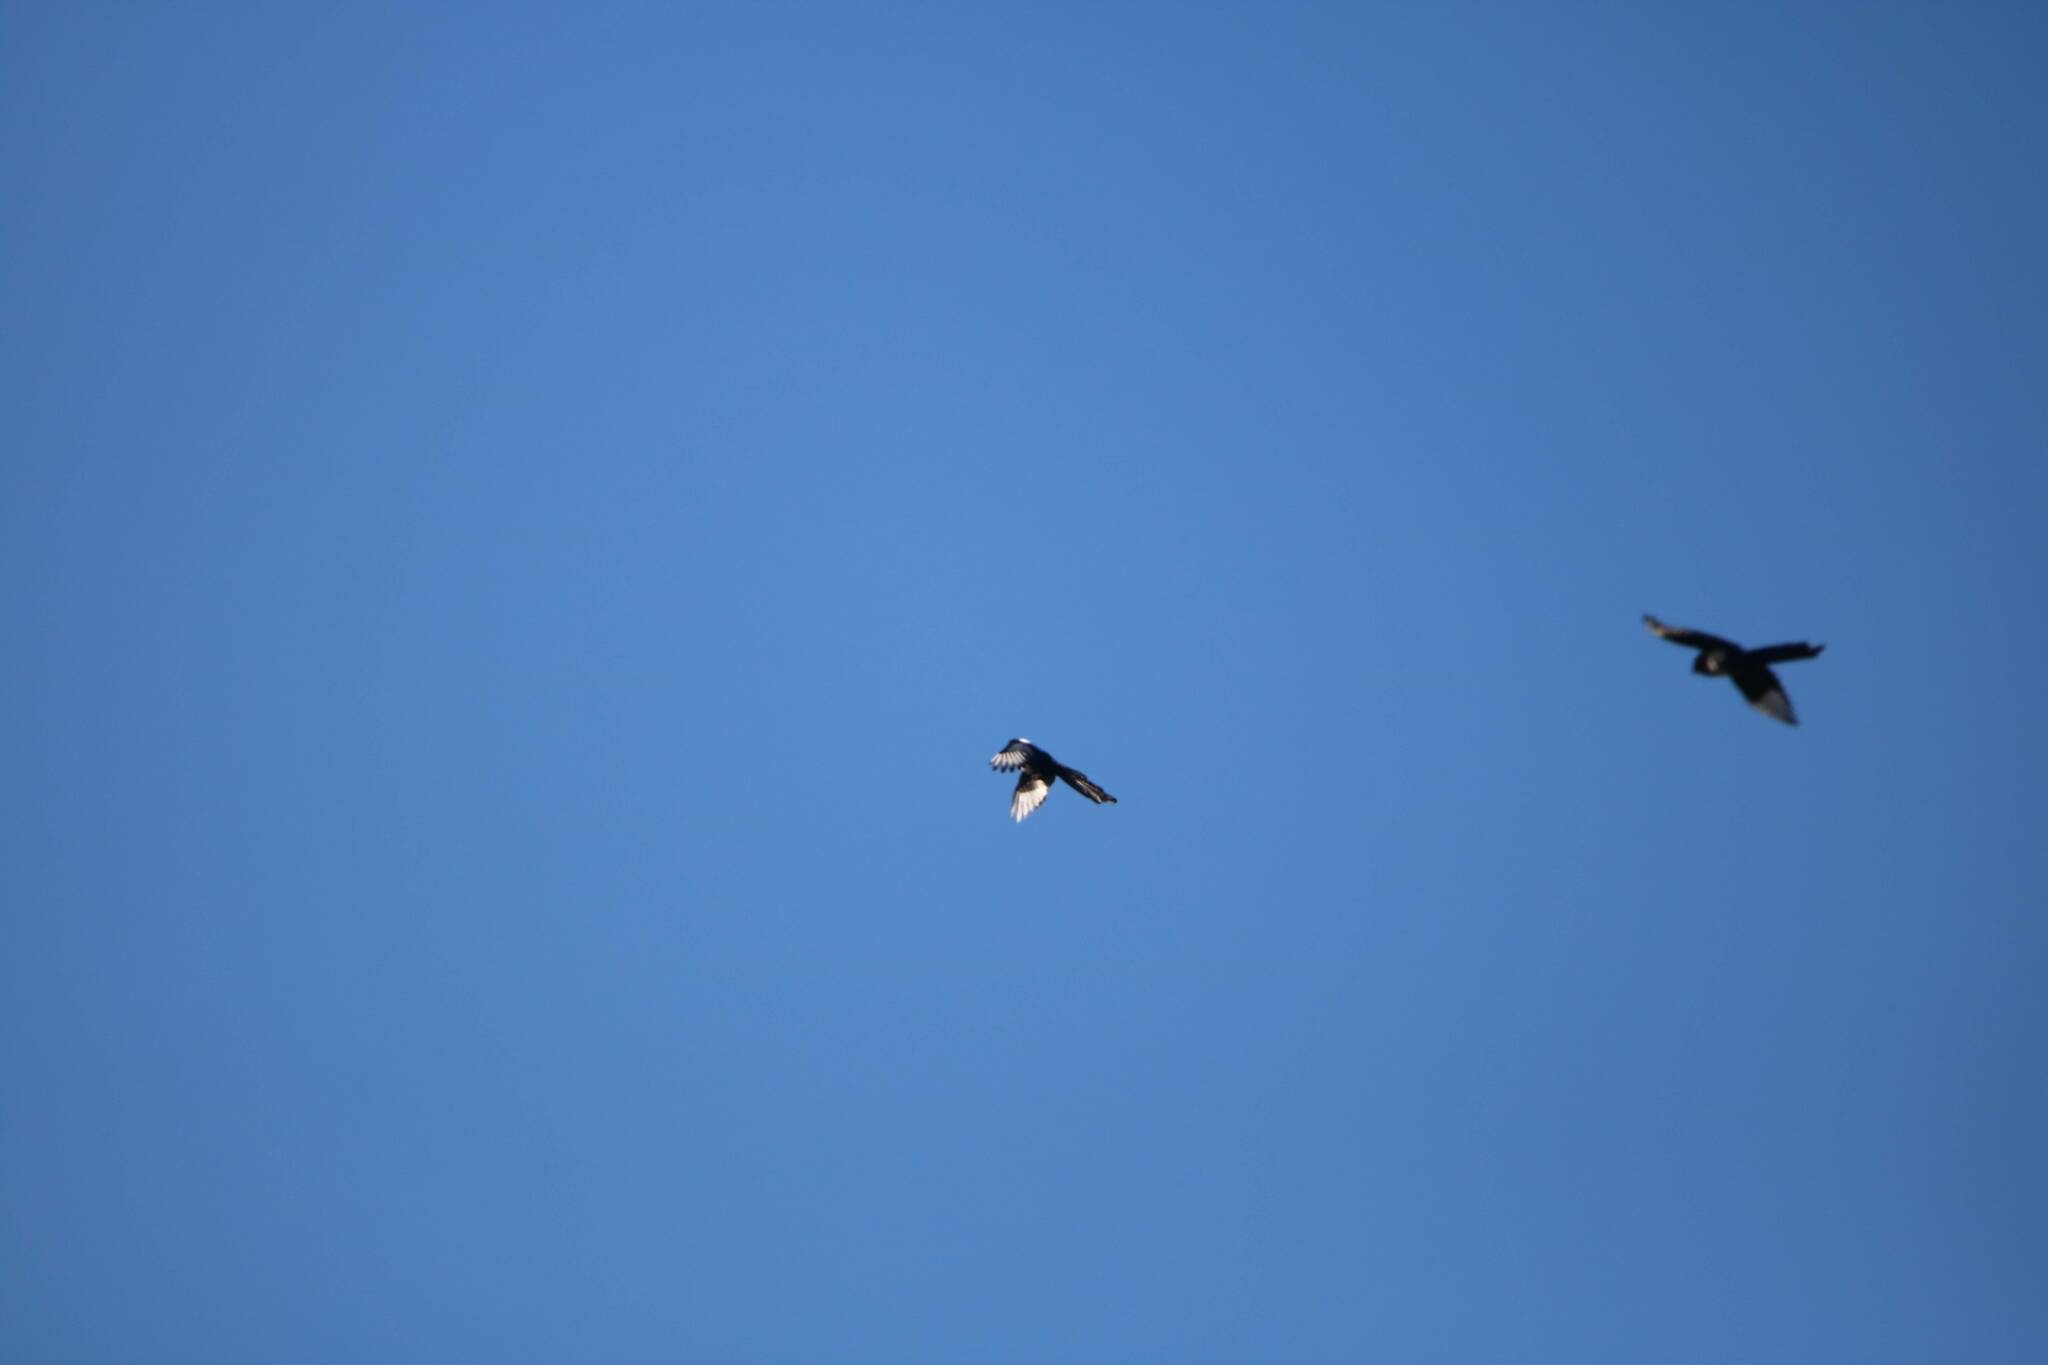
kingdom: Animalia
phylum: Chordata
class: Aves
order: Passeriformes
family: Corvidae
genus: Pica
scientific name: Pica mauritanica
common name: Maghreb magpie
